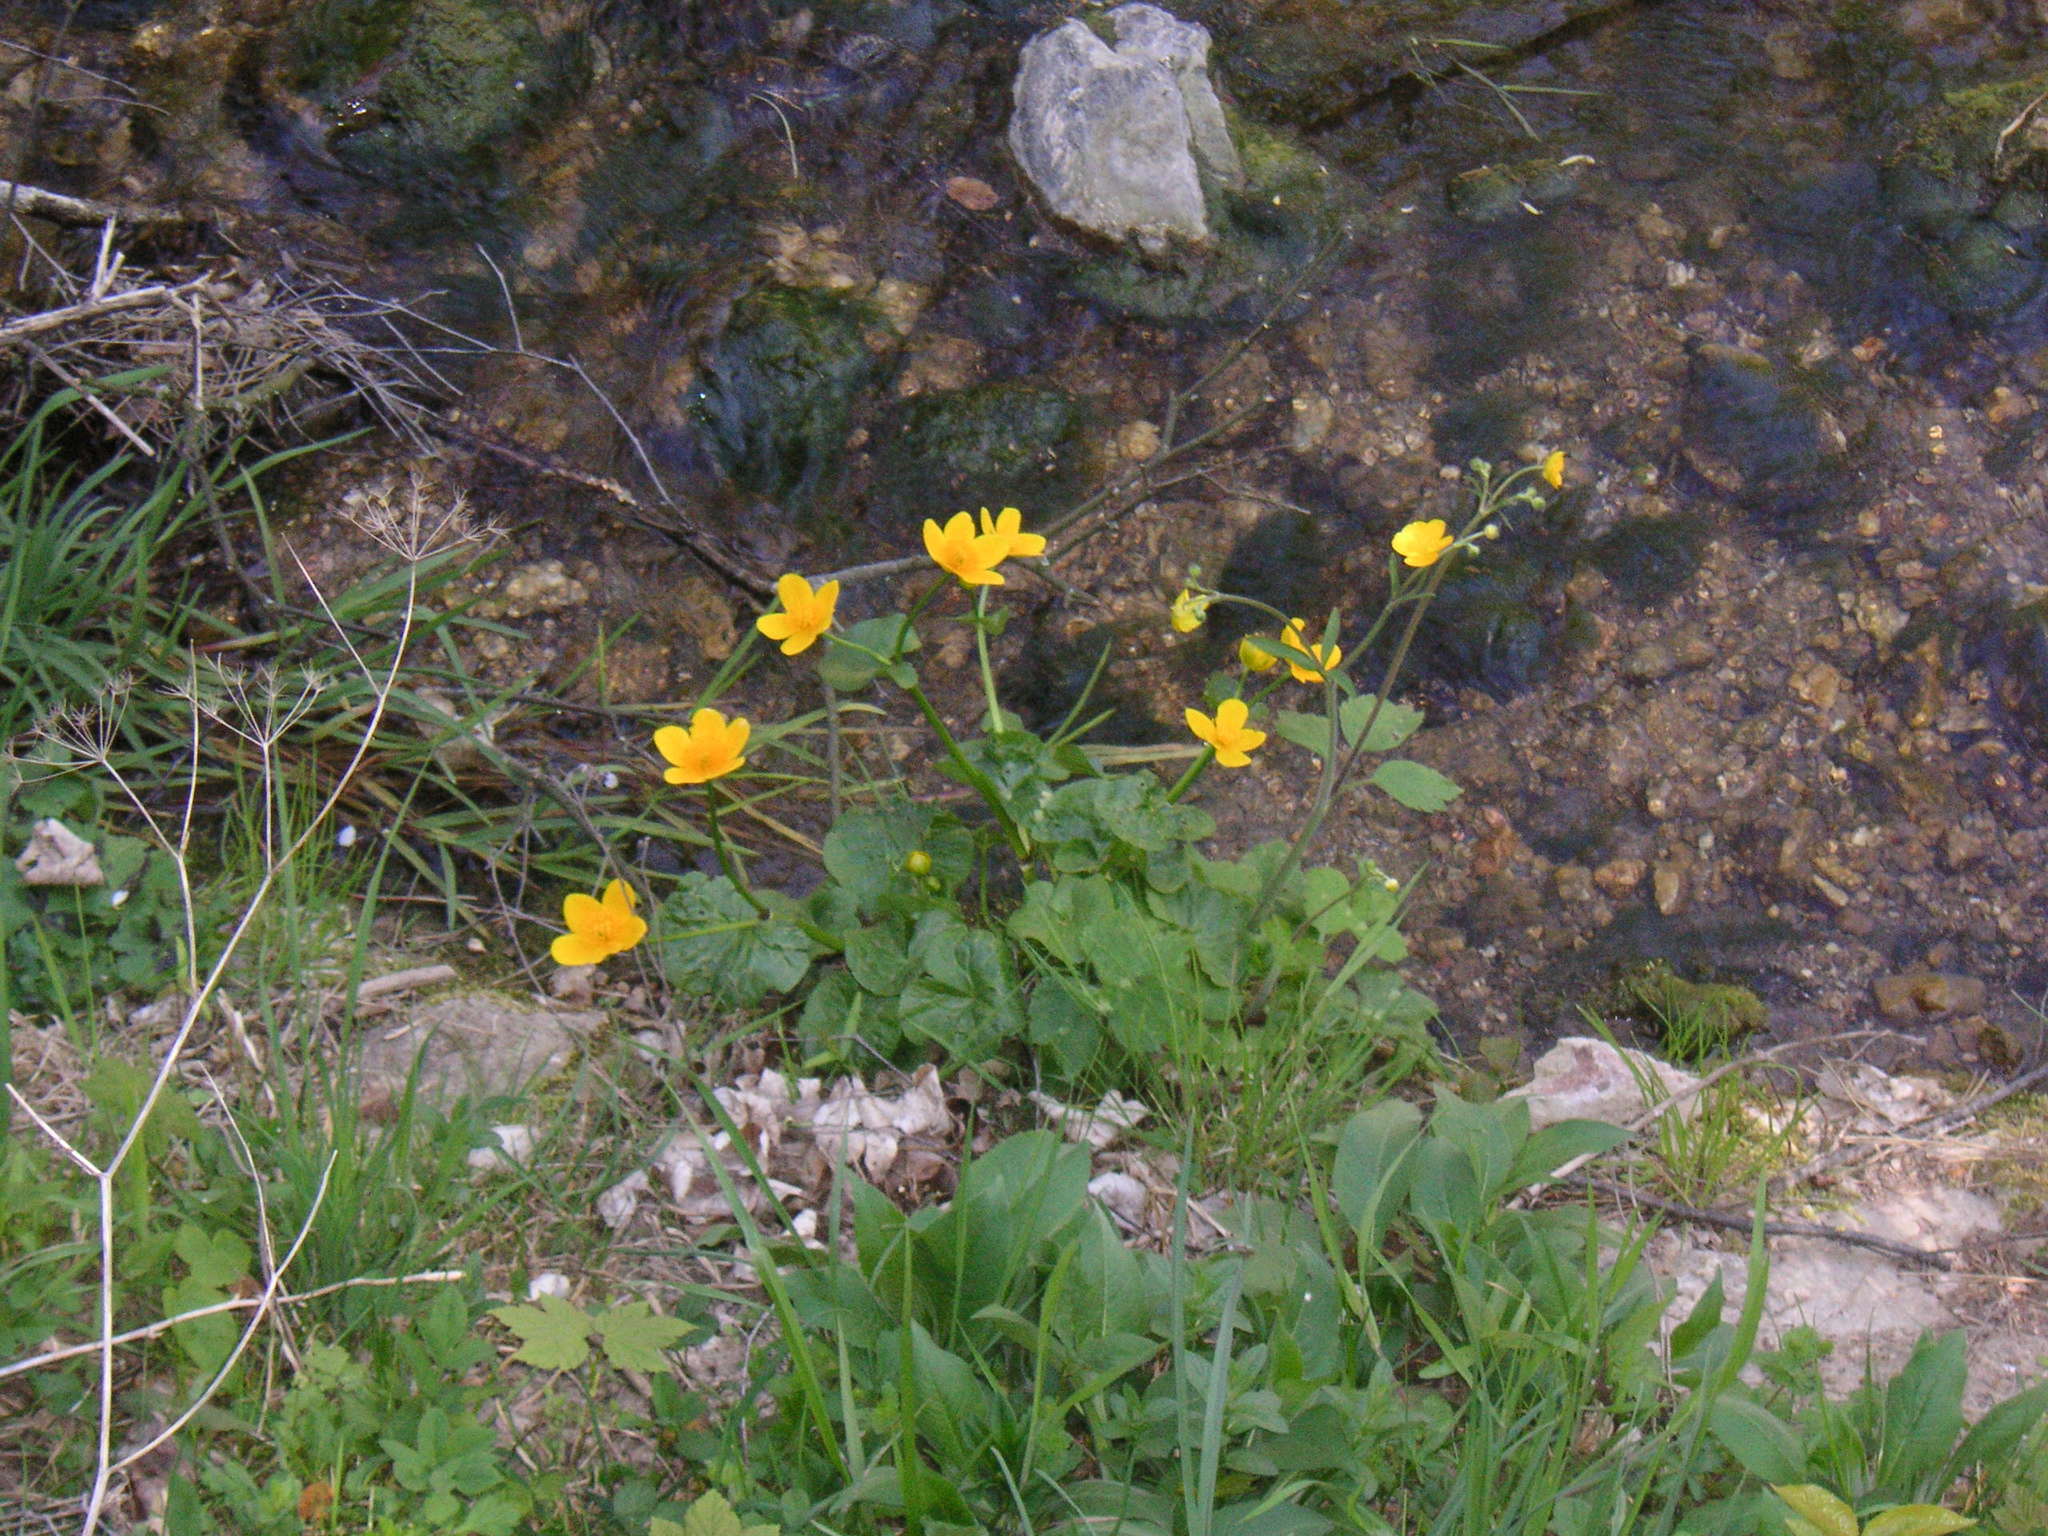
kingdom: Plantae
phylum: Tracheophyta
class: Magnoliopsida
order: Ranunculales
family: Ranunculaceae
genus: Caltha
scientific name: Caltha palustris
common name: Marsh marigold
